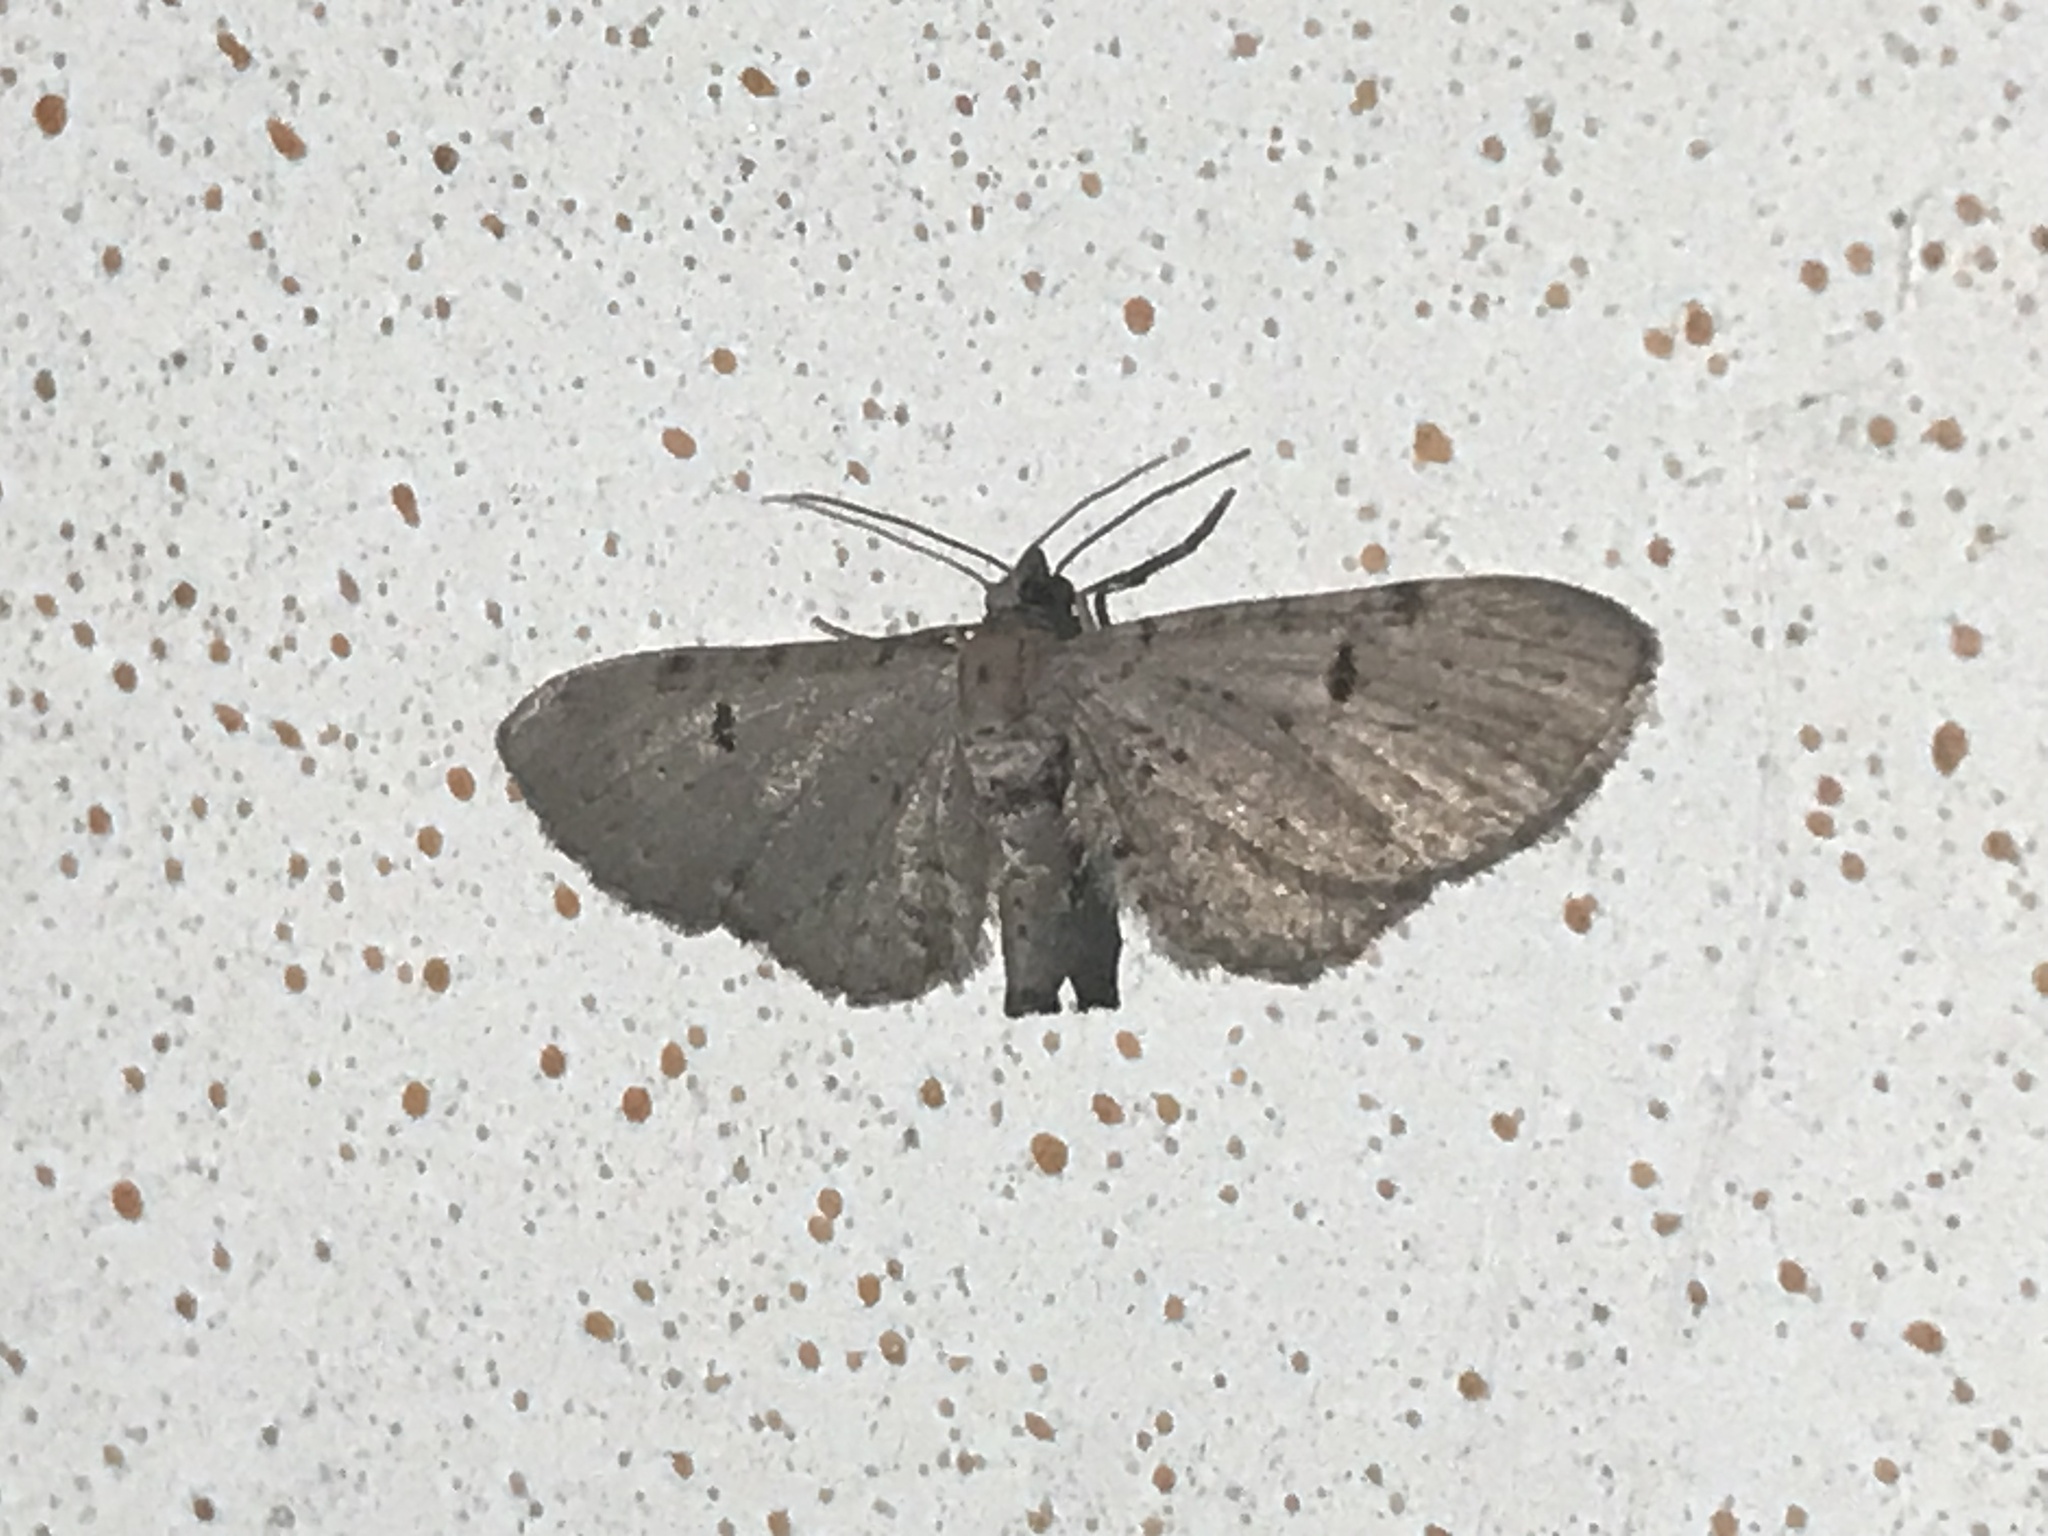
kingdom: Animalia
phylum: Arthropoda
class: Insecta
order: Lepidoptera
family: Geometridae
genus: Eupithecia
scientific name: Eupithecia absinthiata
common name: Wormwood pug
